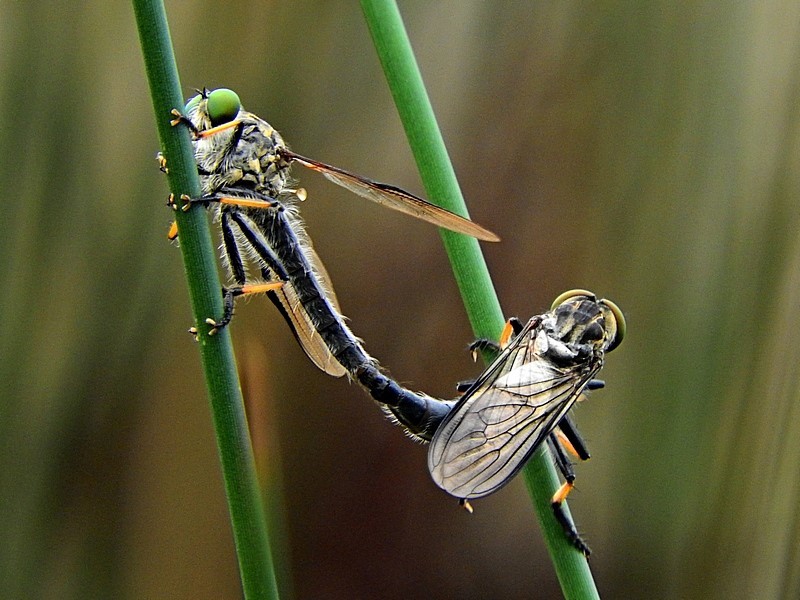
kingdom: Animalia
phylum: Arthropoda
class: Insecta
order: Diptera
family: Asilidae
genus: Ommatius
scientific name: Ommatius coeraebus
